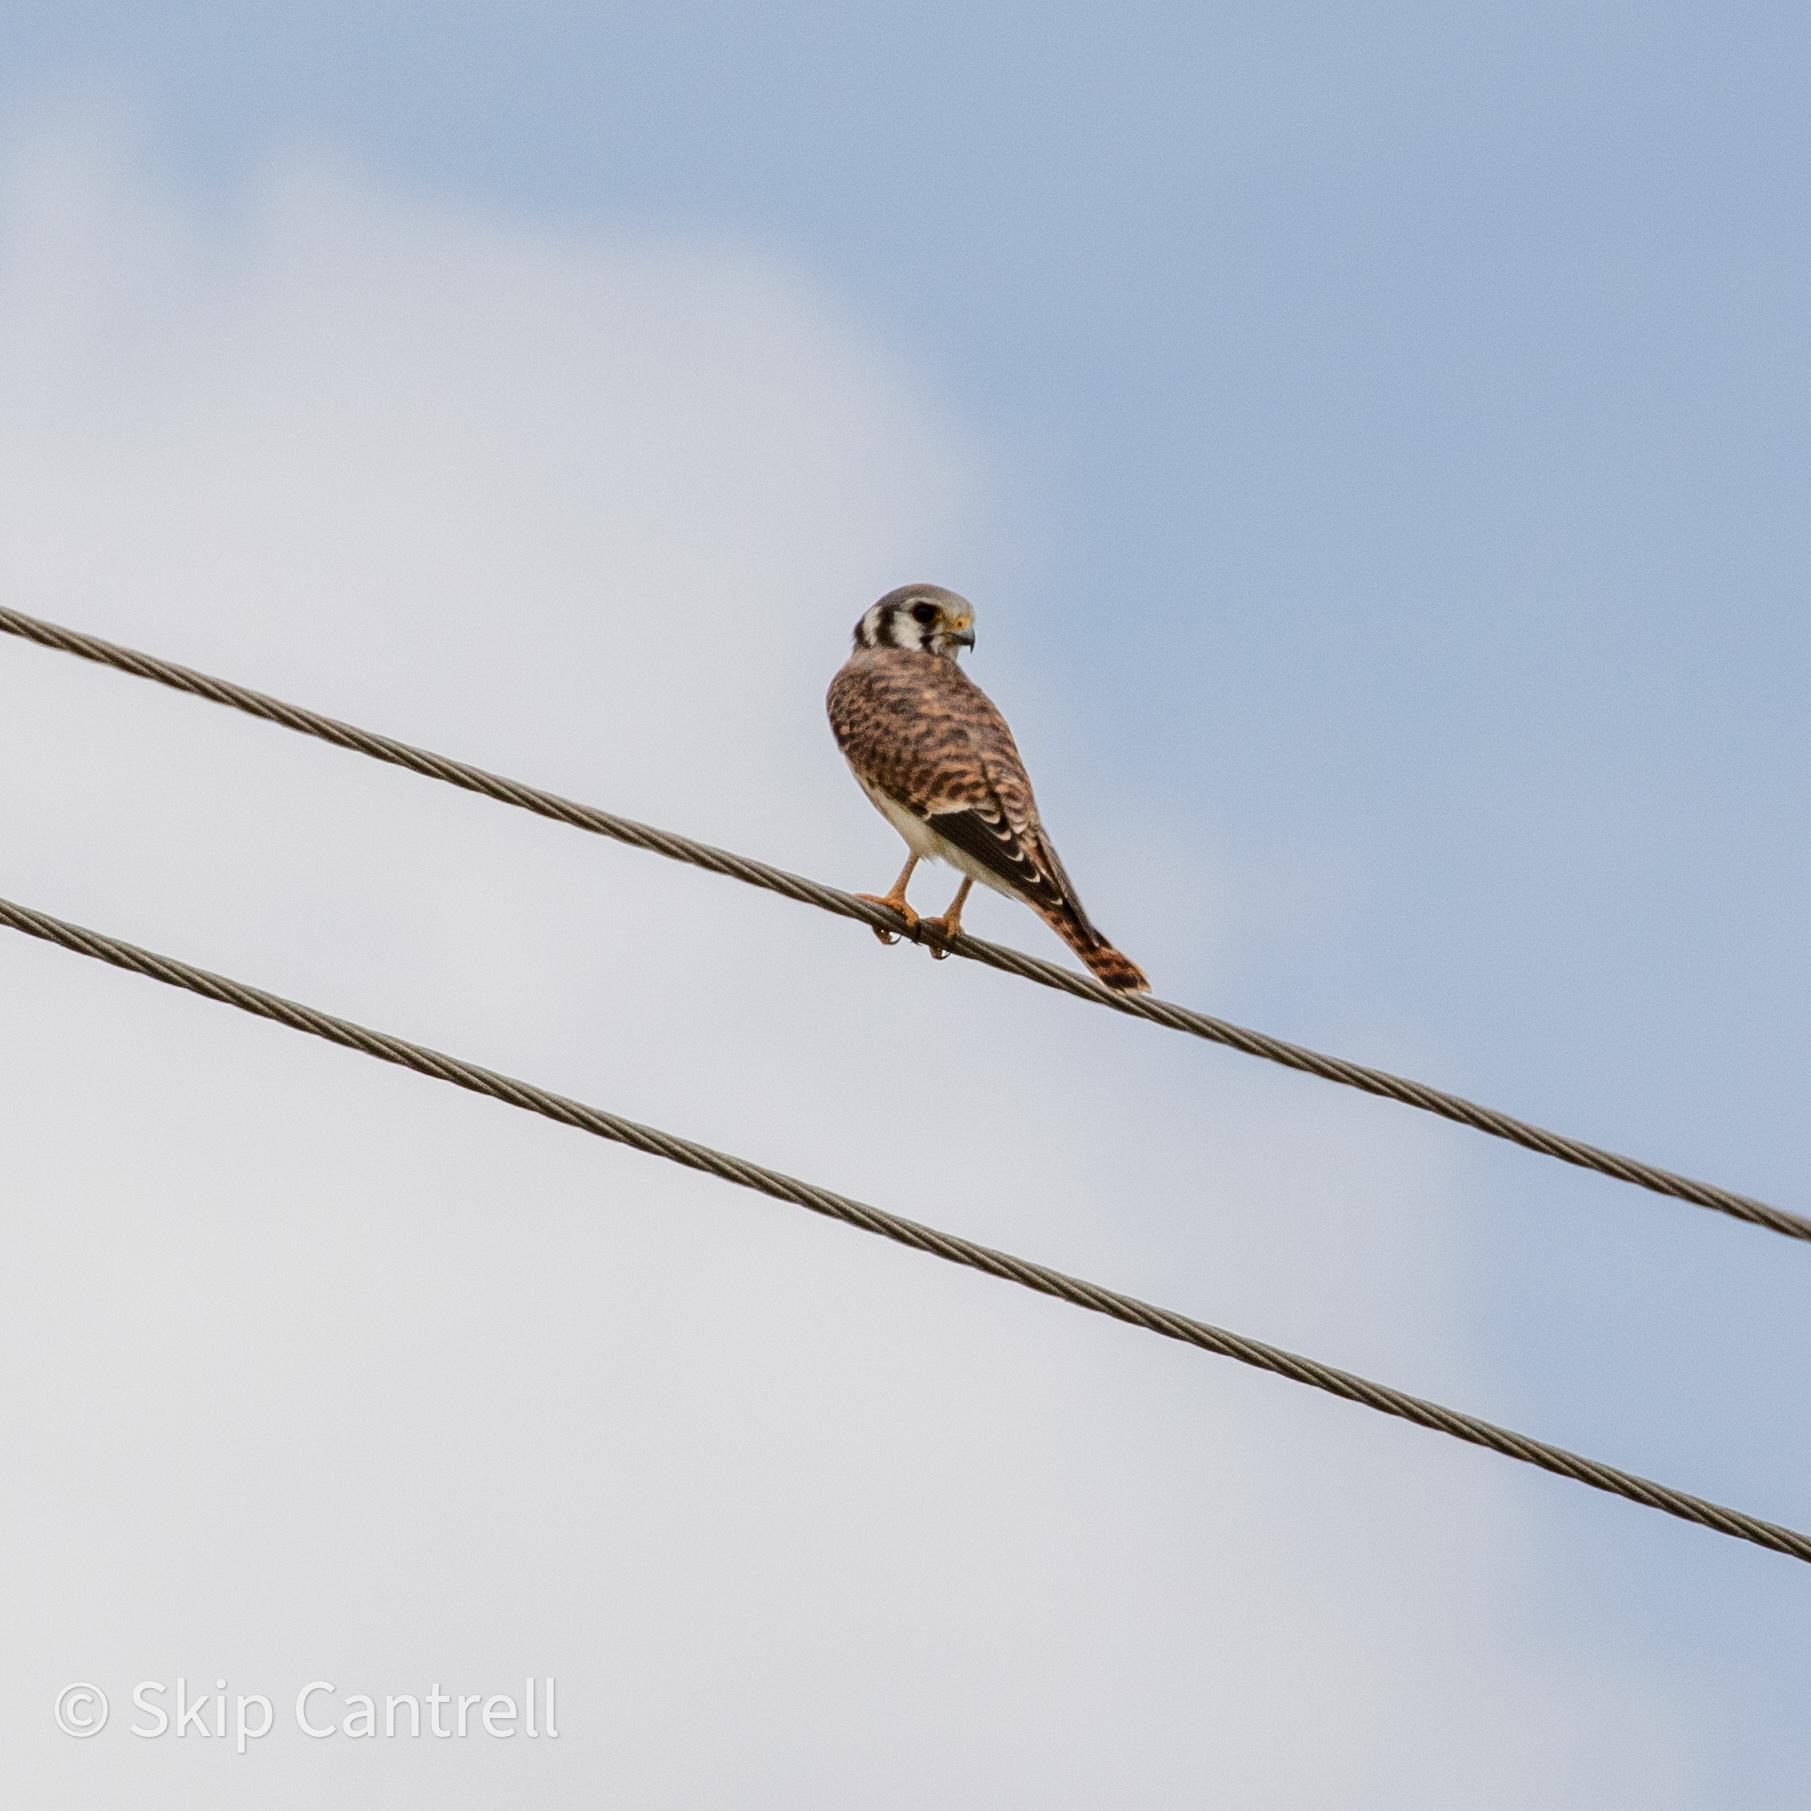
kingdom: Animalia
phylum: Chordata
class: Aves
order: Falconiformes
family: Falconidae
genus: Falco
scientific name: Falco sparverius
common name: American kestrel
